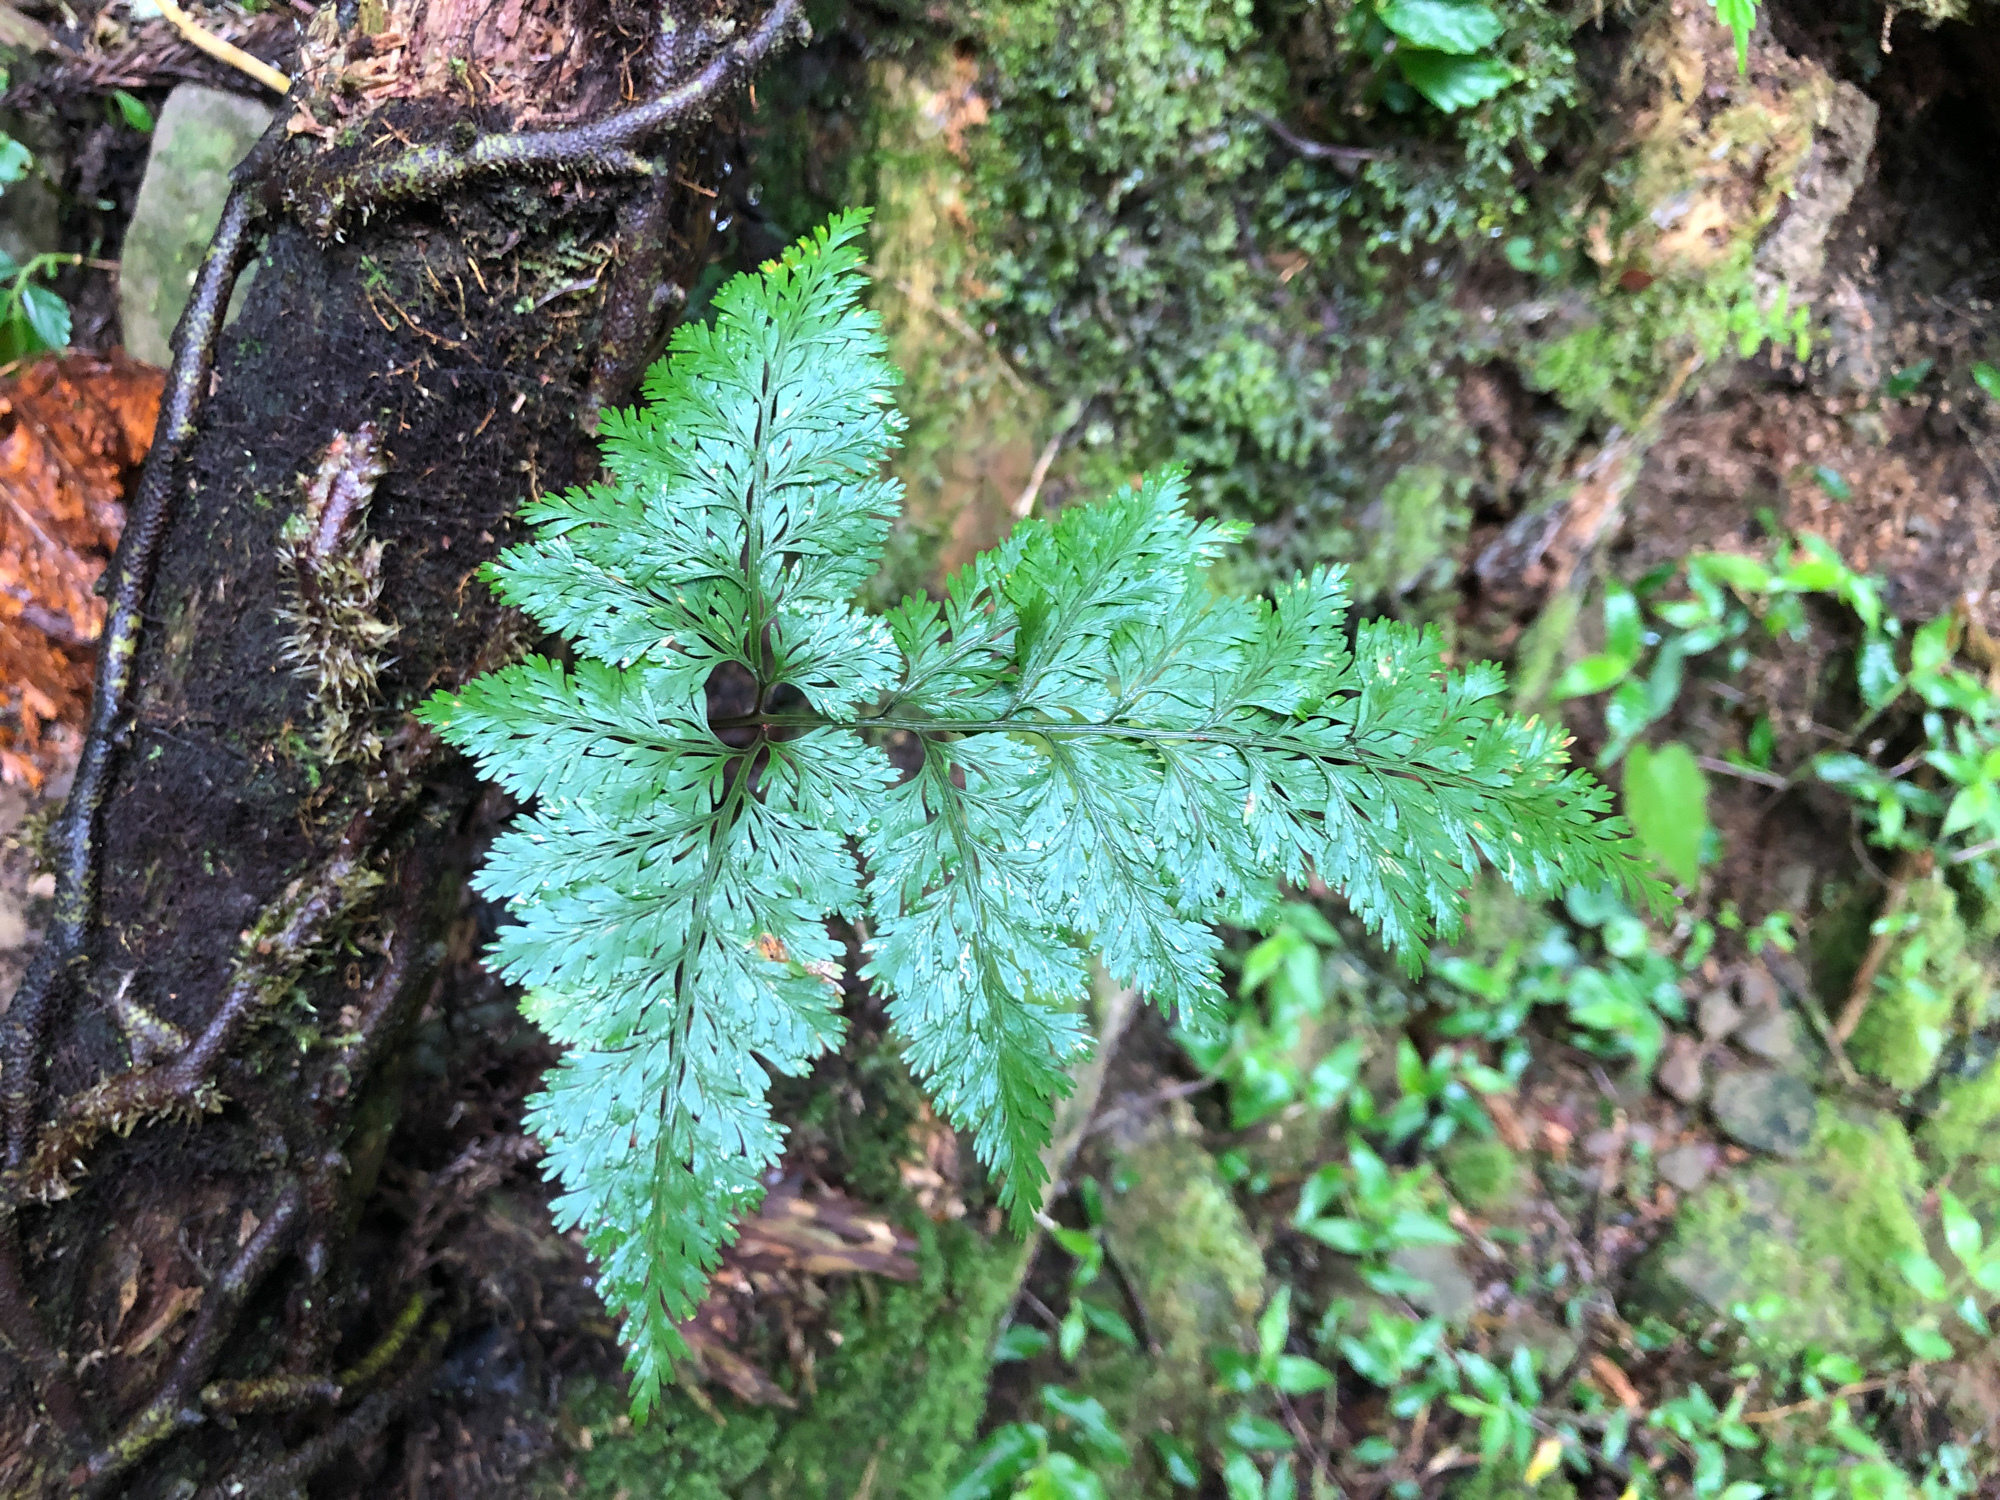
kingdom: Plantae
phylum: Tracheophyta
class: Polypodiopsida
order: Polypodiales
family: Davalliaceae
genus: Davallia
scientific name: Davallia trichomanoides
